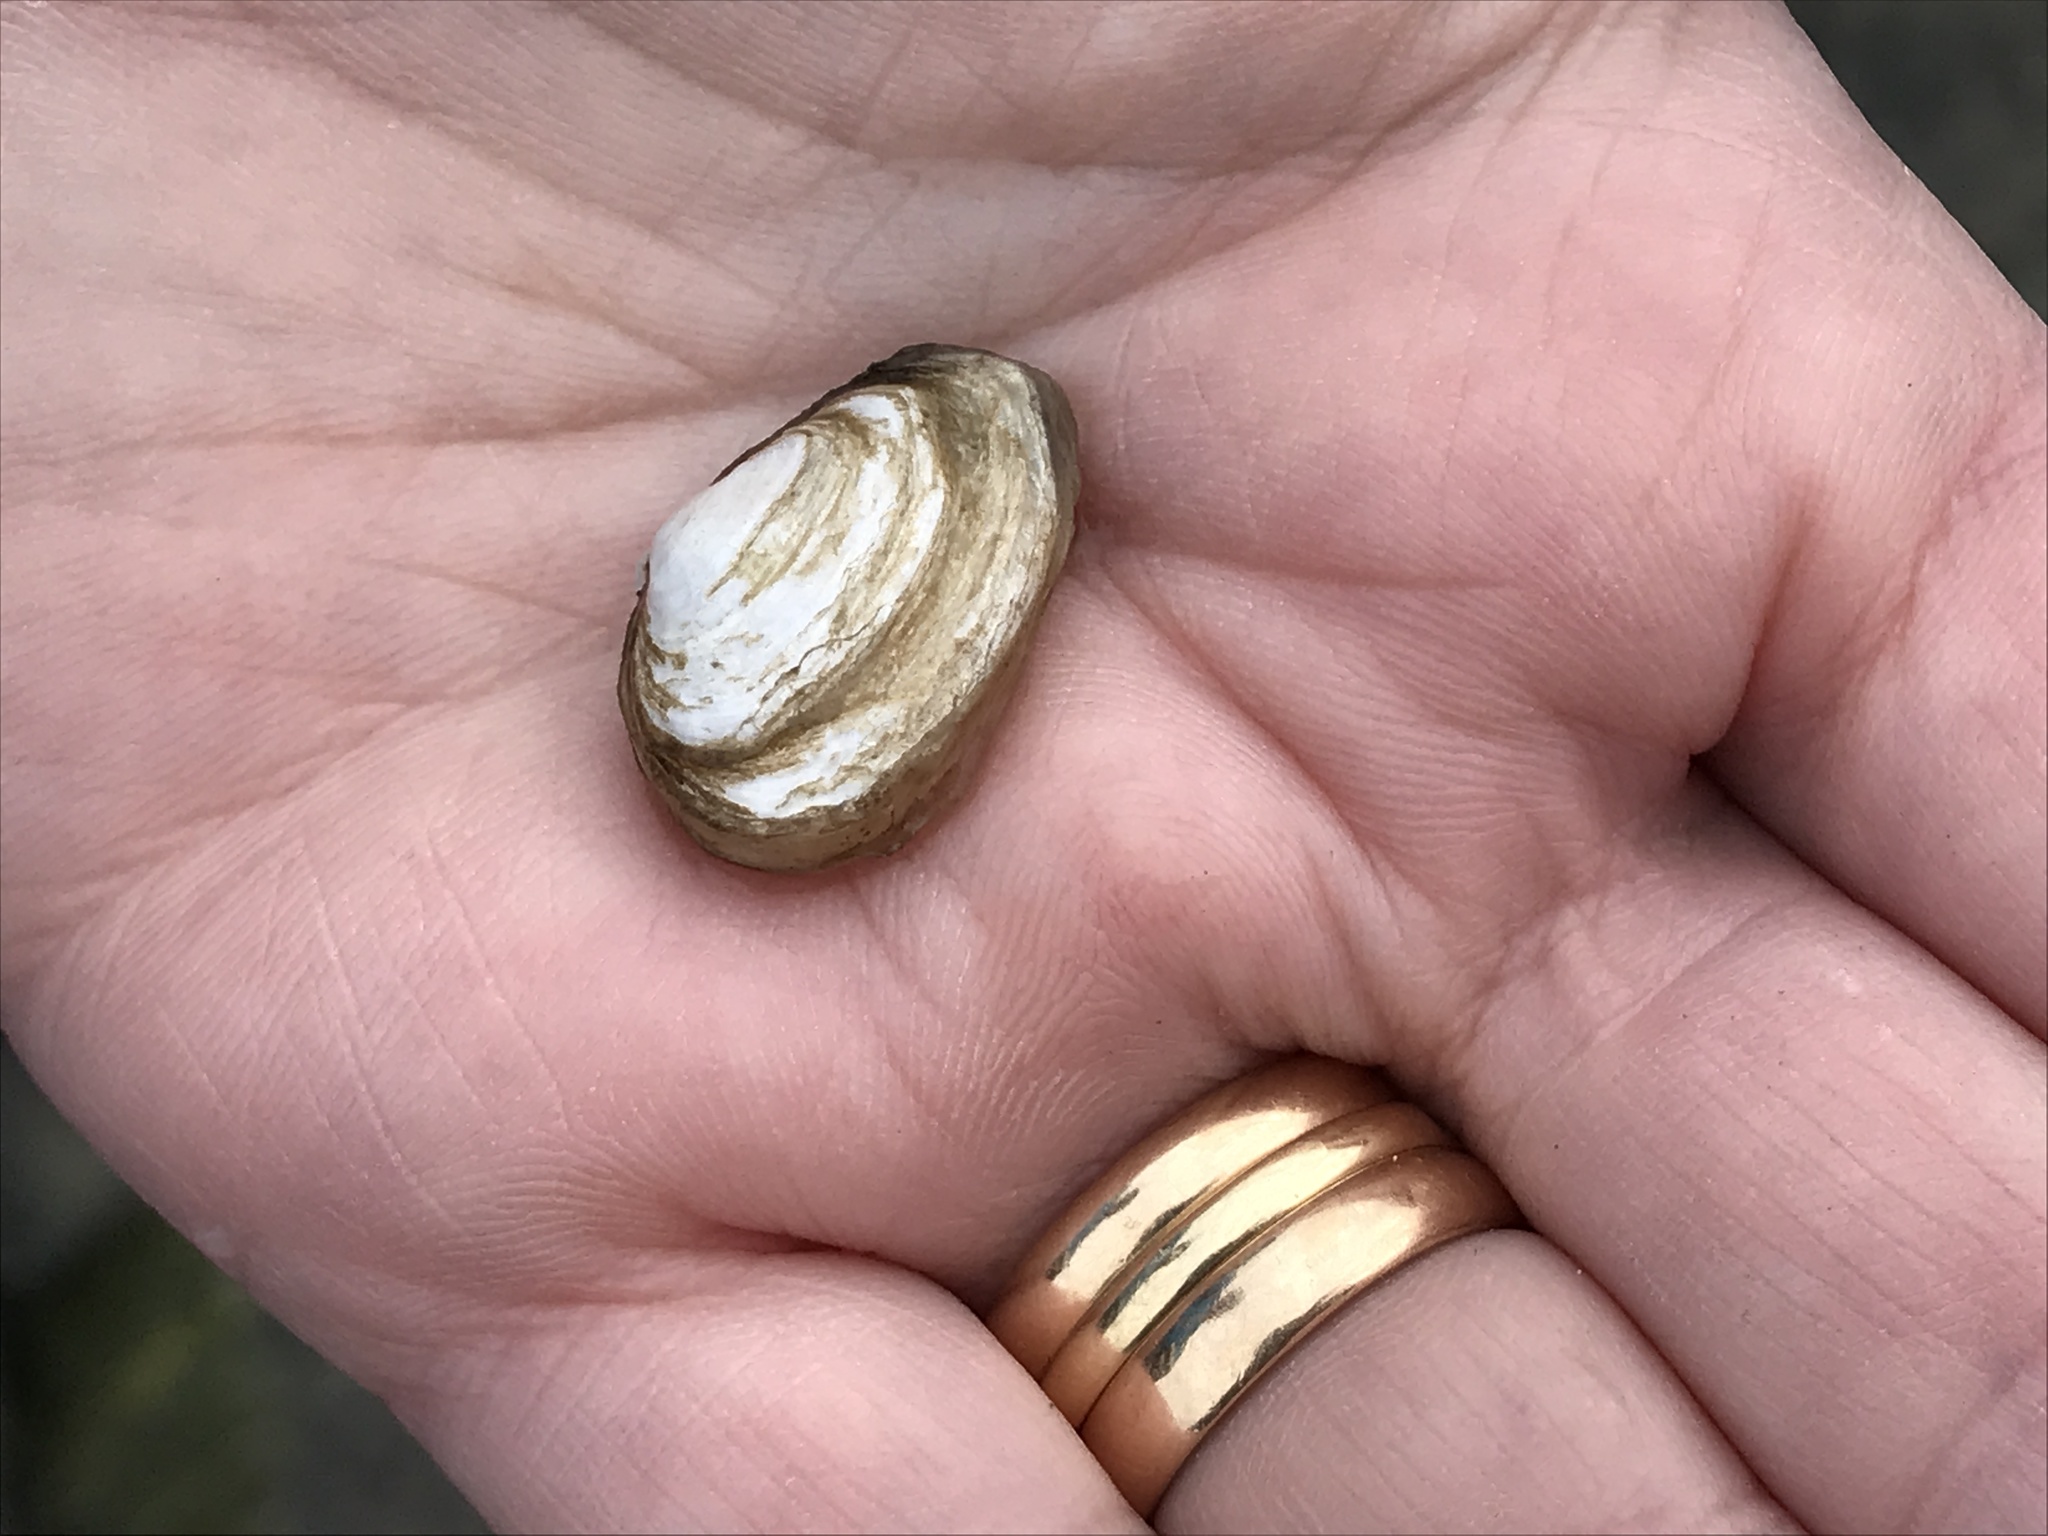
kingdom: Animalia
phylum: Mollusca
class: Bivalvia
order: Myida
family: Myidae
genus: Mya
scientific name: Mya arenaria
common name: Soft-shelled clam
